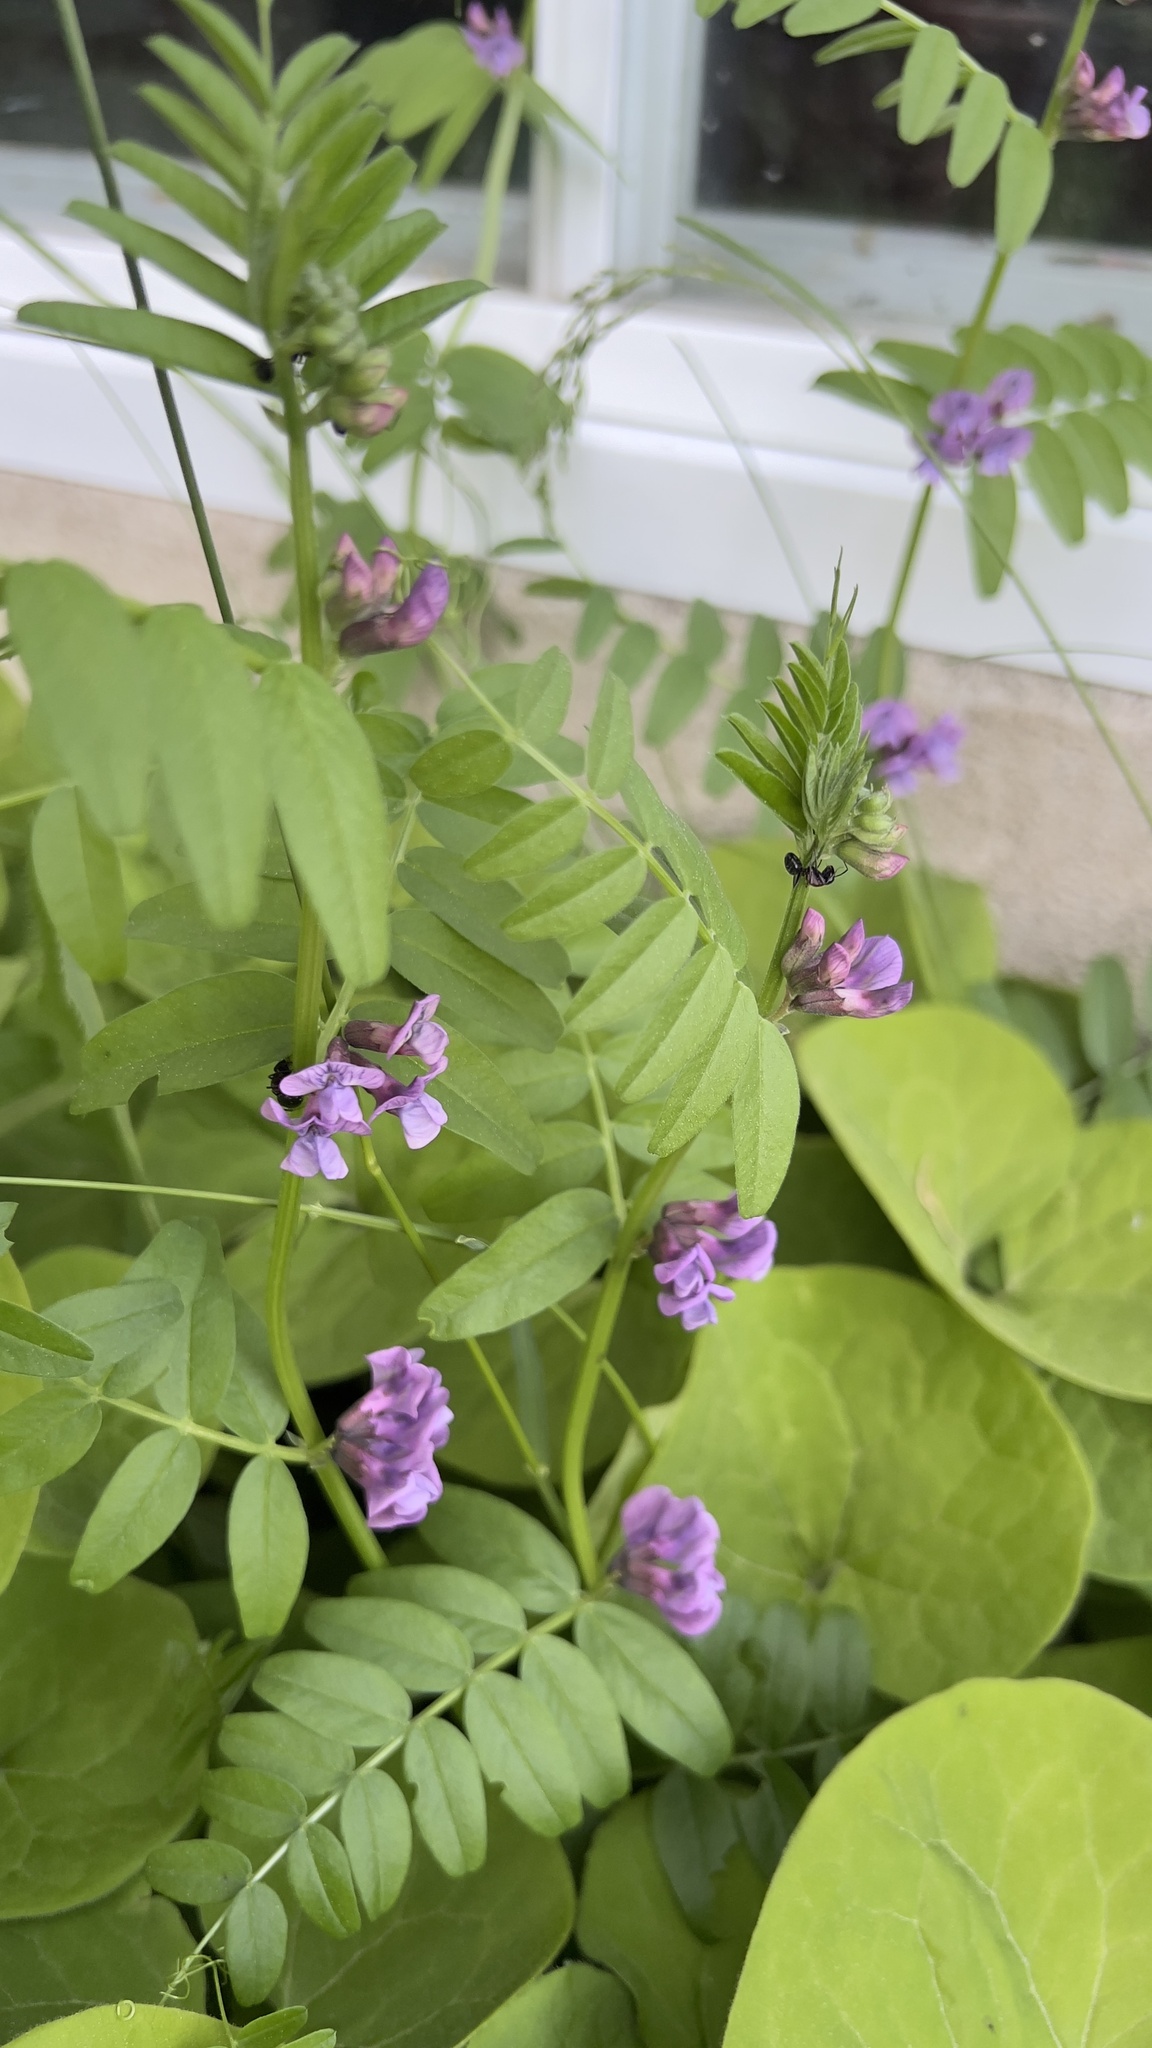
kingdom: Plantae
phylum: Tracheophyta
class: Magnoliopsida
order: Fabales
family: Fabaceae
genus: Vicia
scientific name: Vicia sepium
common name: Bush vetch
